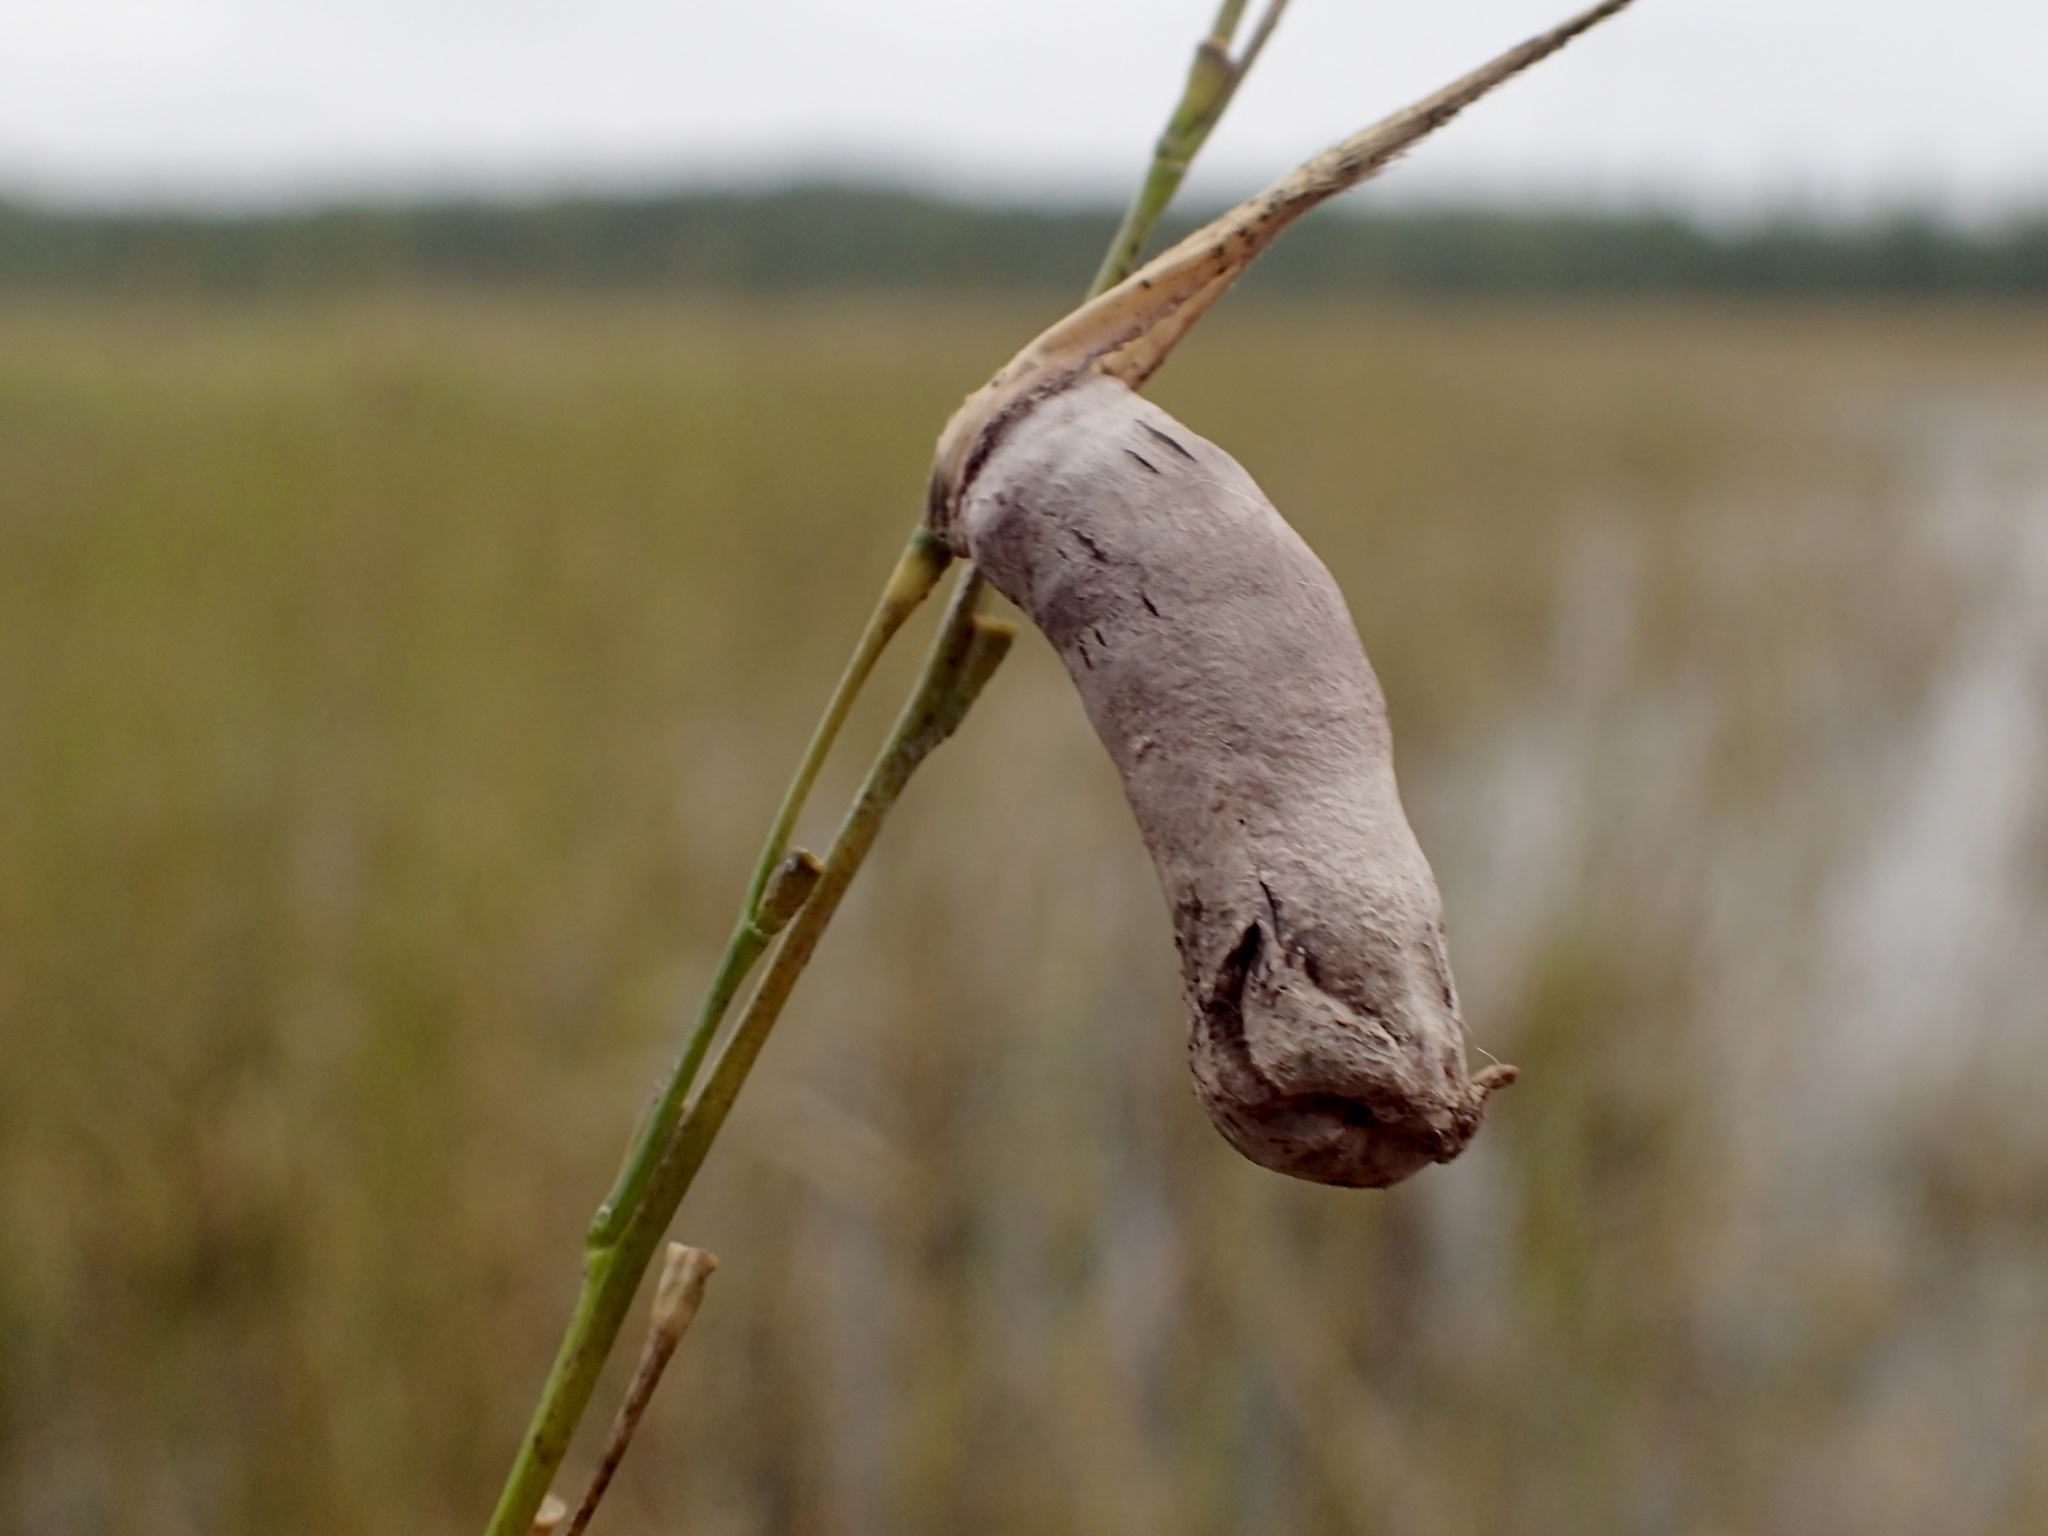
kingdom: Fungi
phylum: Ascomycota
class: Sordariomycetes
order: Hypocreales
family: Clavicipitaceae
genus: Claviceps
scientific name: Claviceps zizaniae
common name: Wildrice ergot
